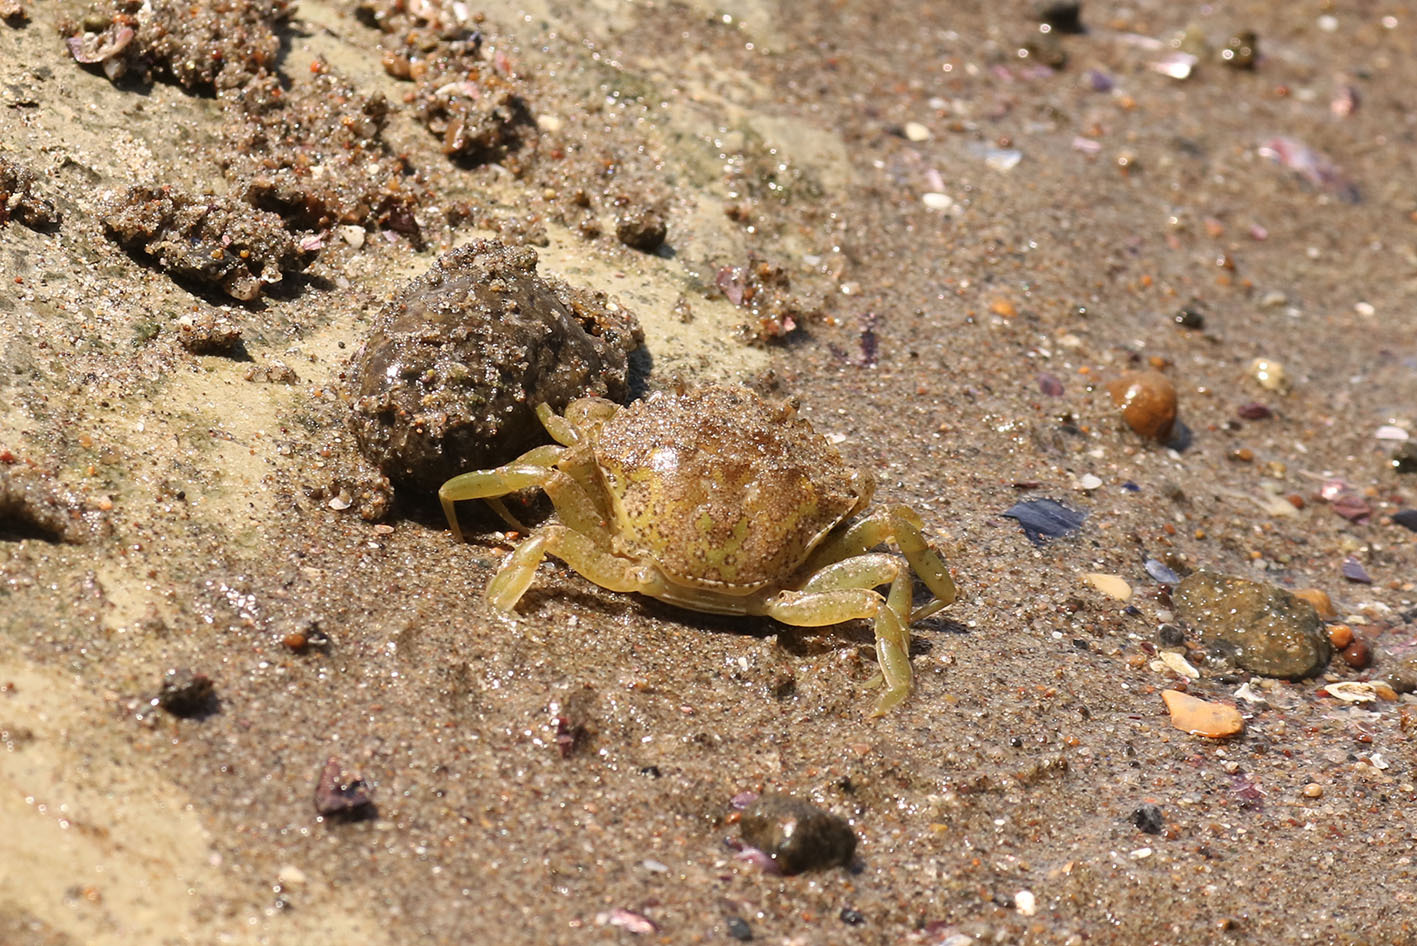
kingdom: Animalia
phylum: Arthropoda
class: Malacostraca
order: Decapoda
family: Carcinidae
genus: Carcinus
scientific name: Carcinus maenas
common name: European green crab
